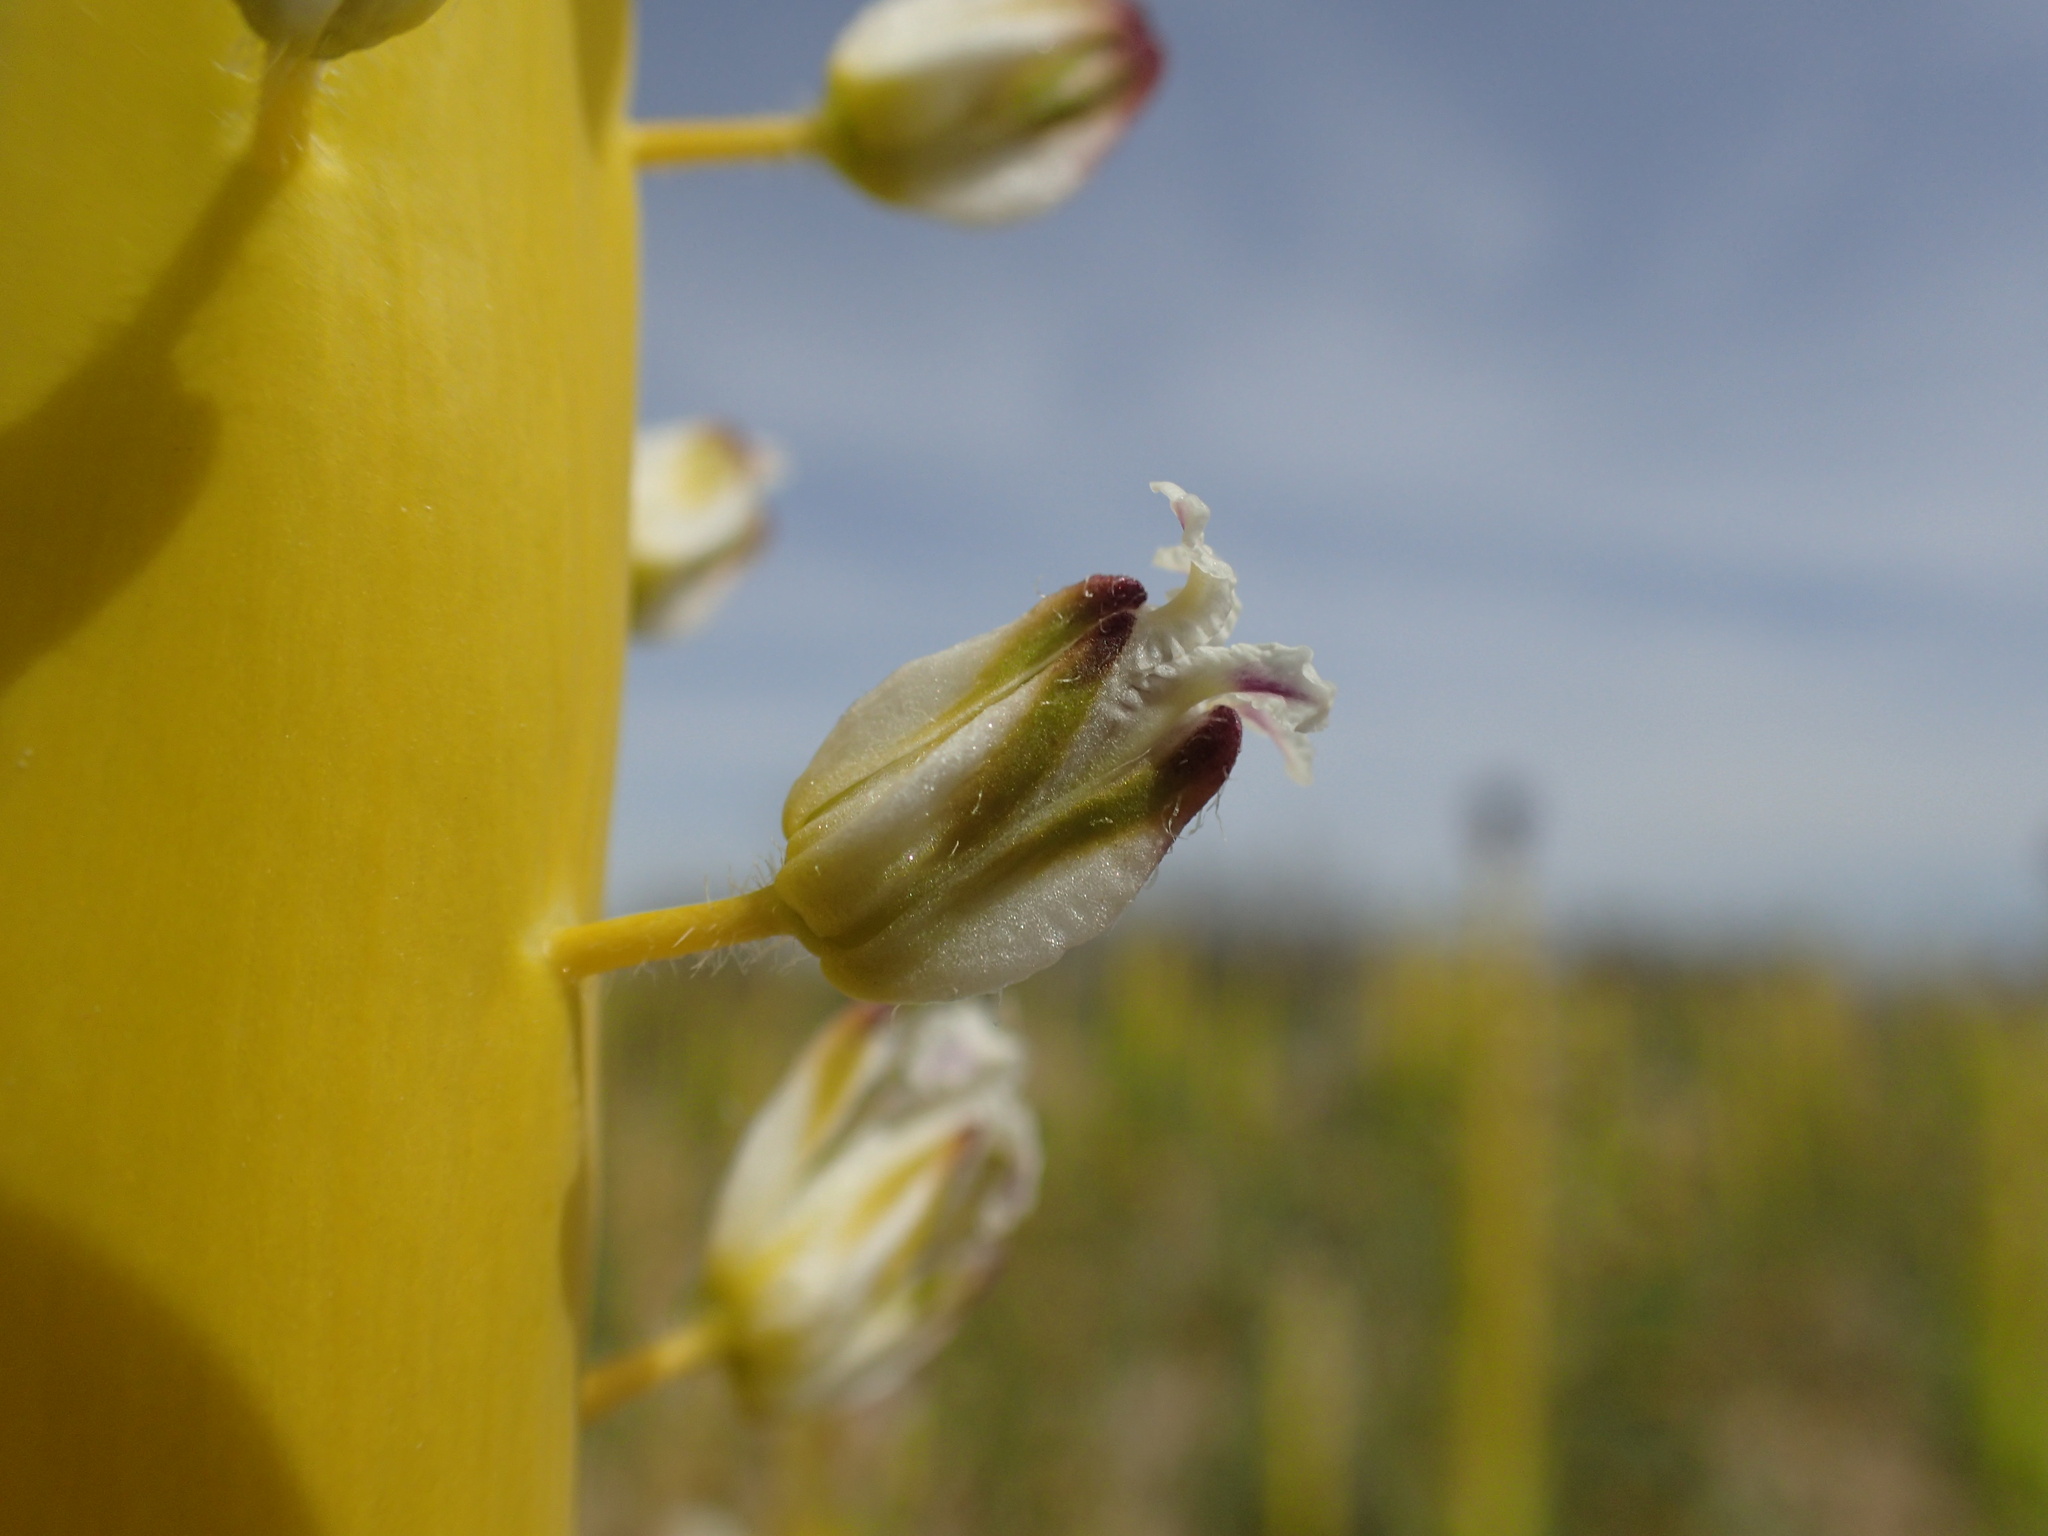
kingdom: Plantae
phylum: Tracheophyta
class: Magnoliopsida
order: Brassicales
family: Brassicaceae
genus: Streptanthus
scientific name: Streptanthus inflatus
